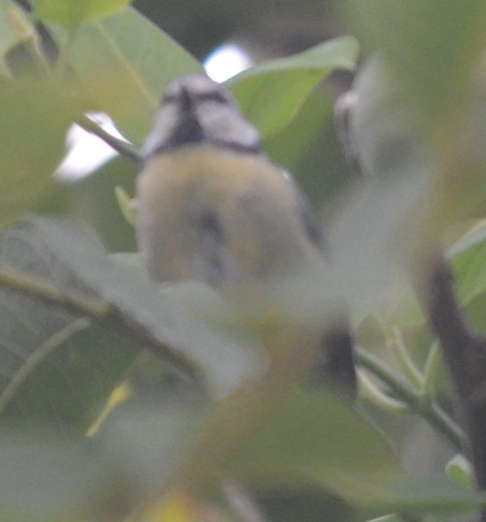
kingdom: Animalia
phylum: Chordata
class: Aves
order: Passeriformes
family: Paridae
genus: Cyanistes
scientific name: Cyanistes caeruleus
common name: Eurasian blue tit
